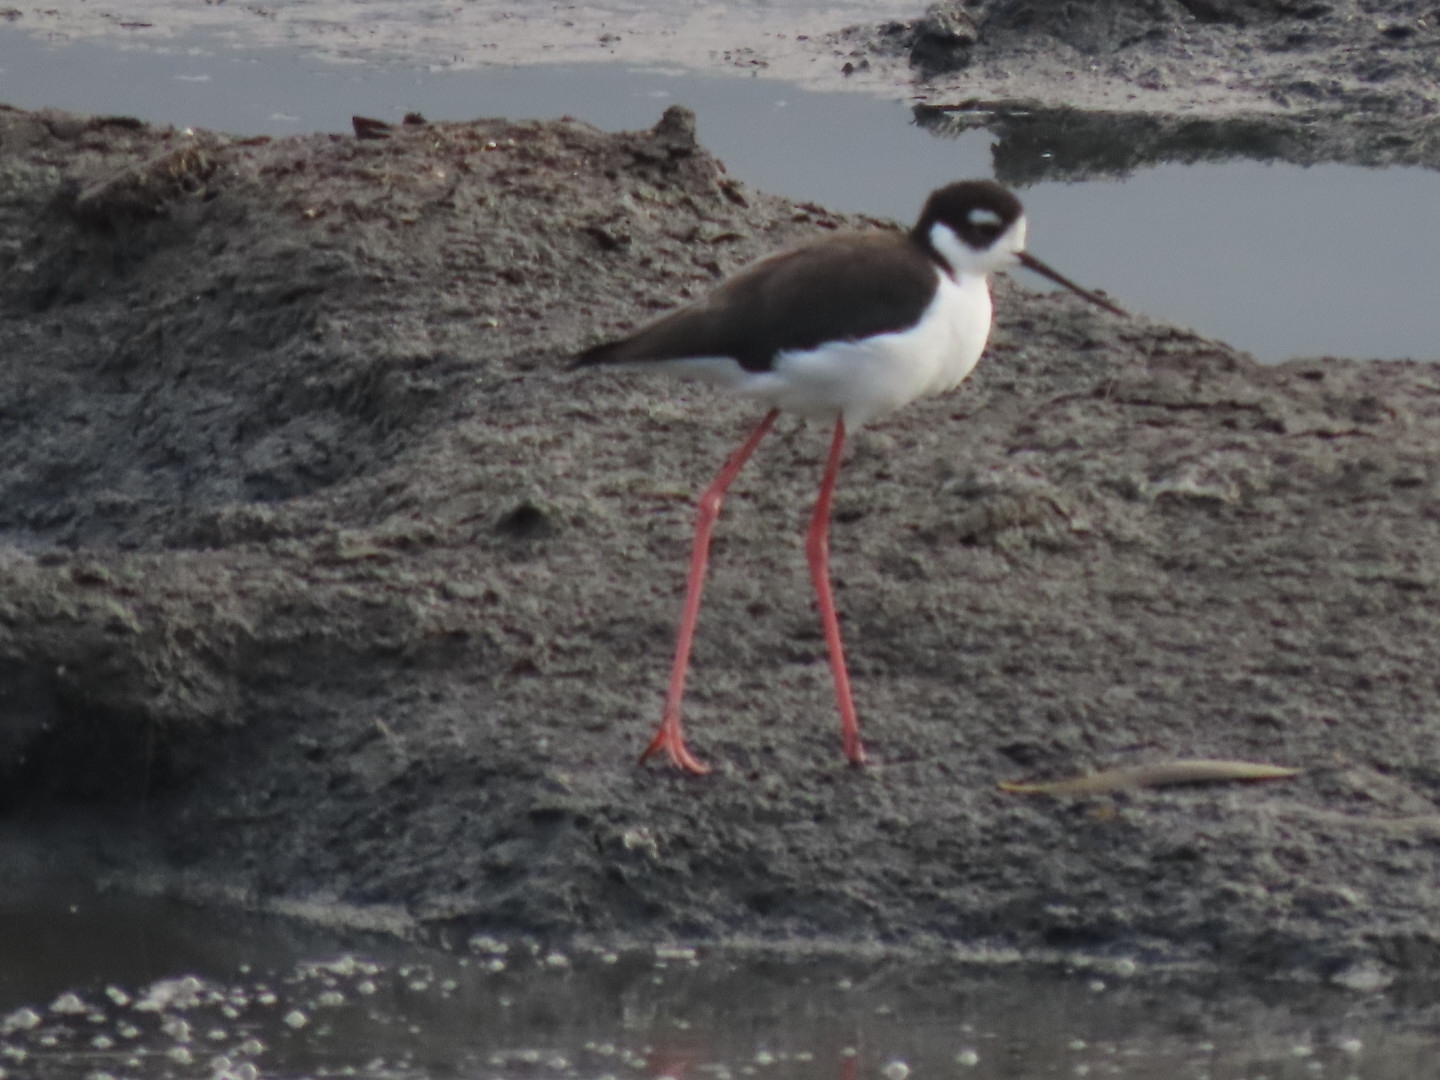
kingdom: Animalia
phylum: Chordata
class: Aves
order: Charadriiformes
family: Recurvirostridae
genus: Himantopus
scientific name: Himantopus mexicanus
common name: Black-necked stilt
